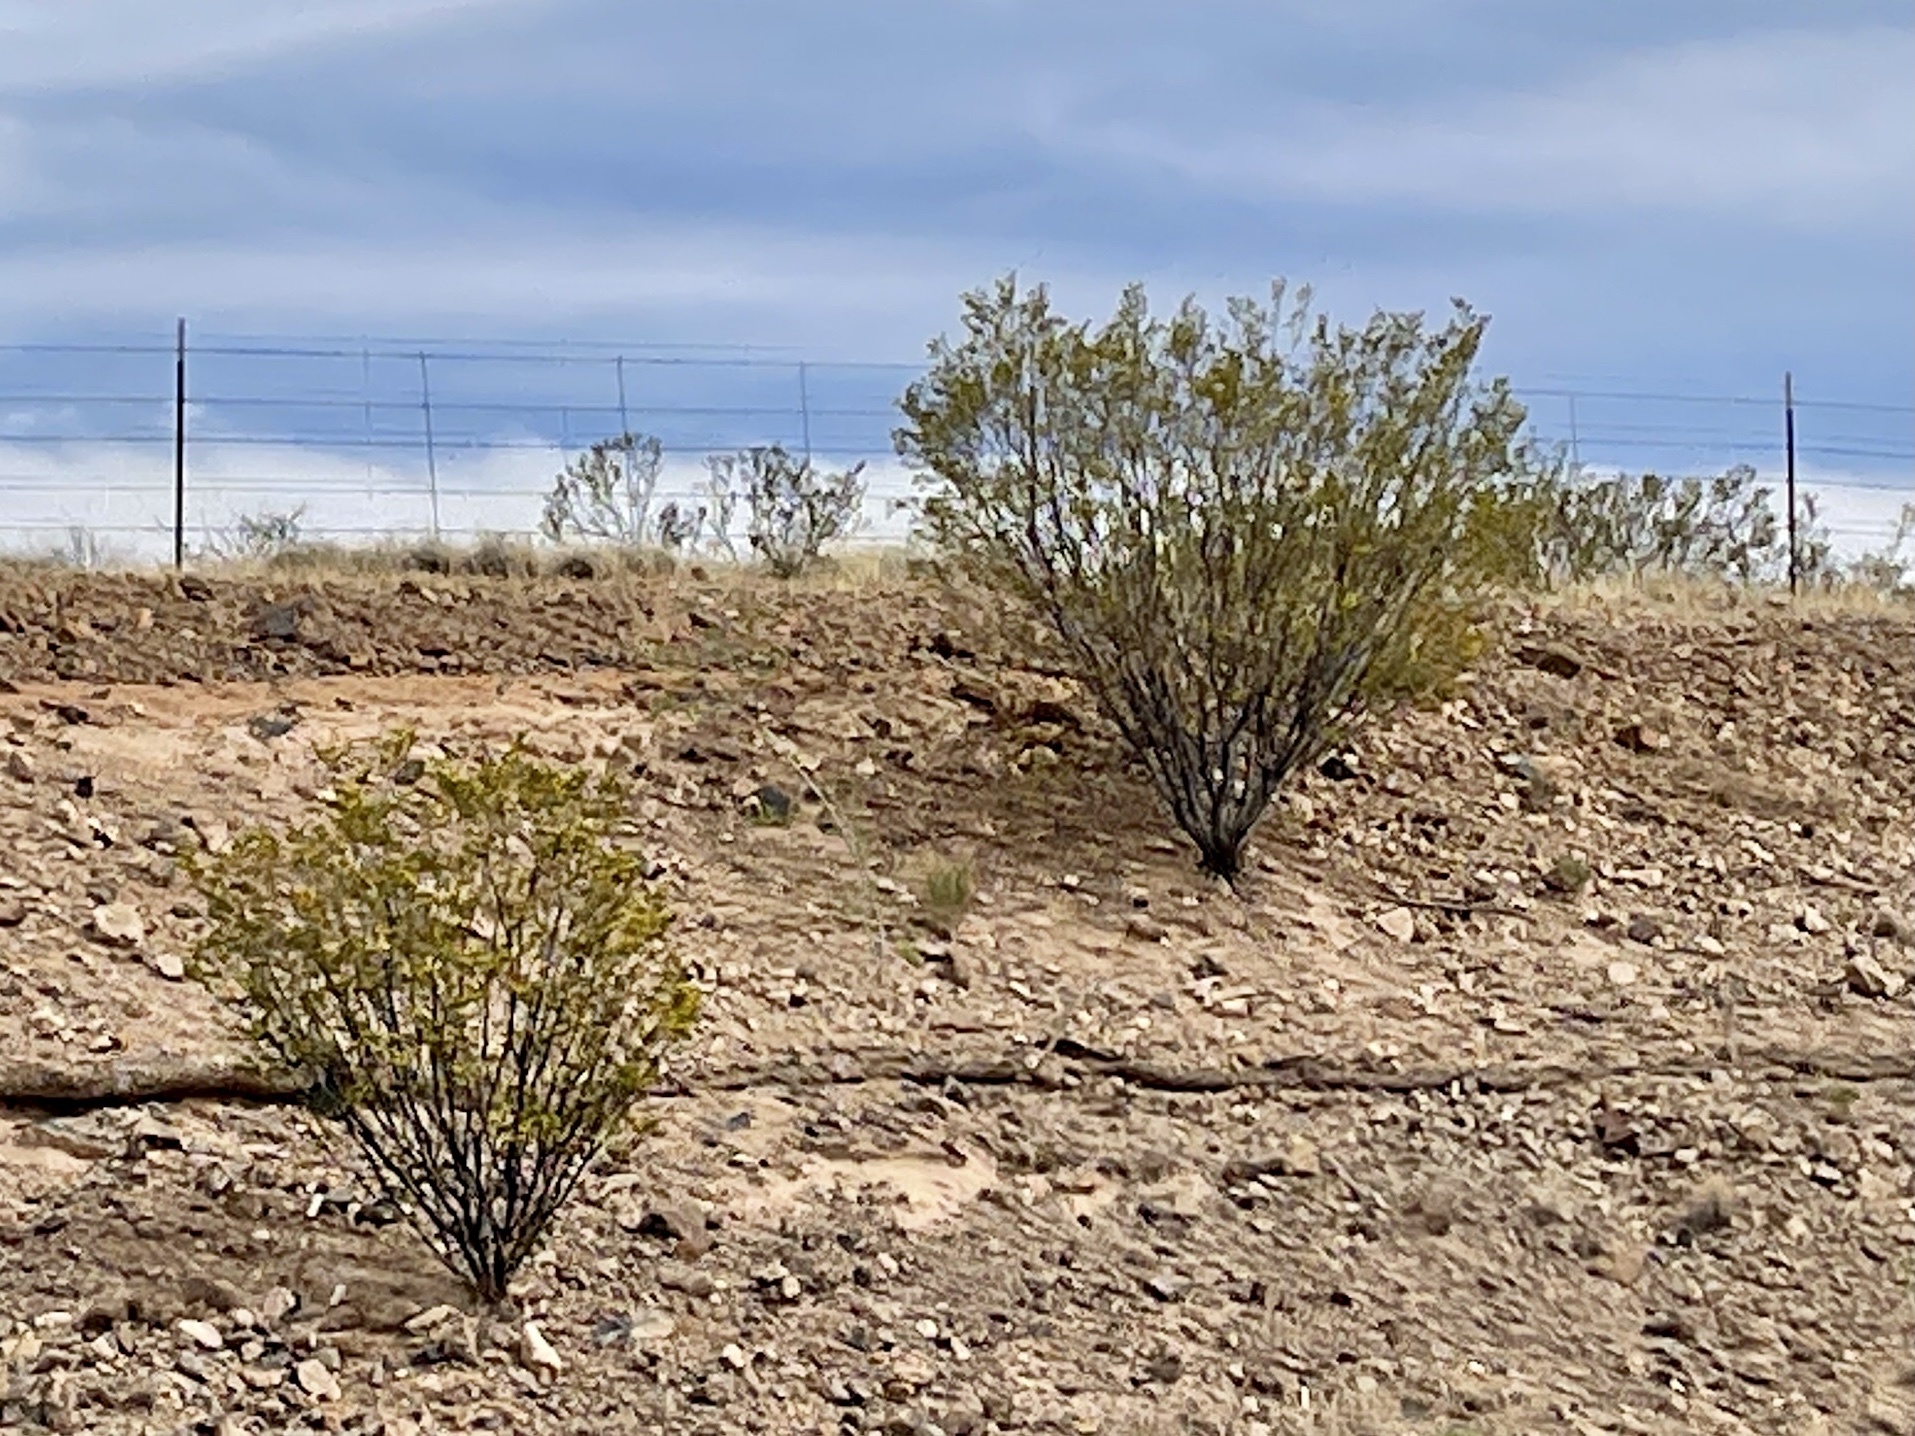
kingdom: Plantae
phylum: Tracheophyta
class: Magnoliopsida
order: Zygophyllales
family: Zygophyllaceae
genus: Larrea
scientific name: Larrea tridentata
